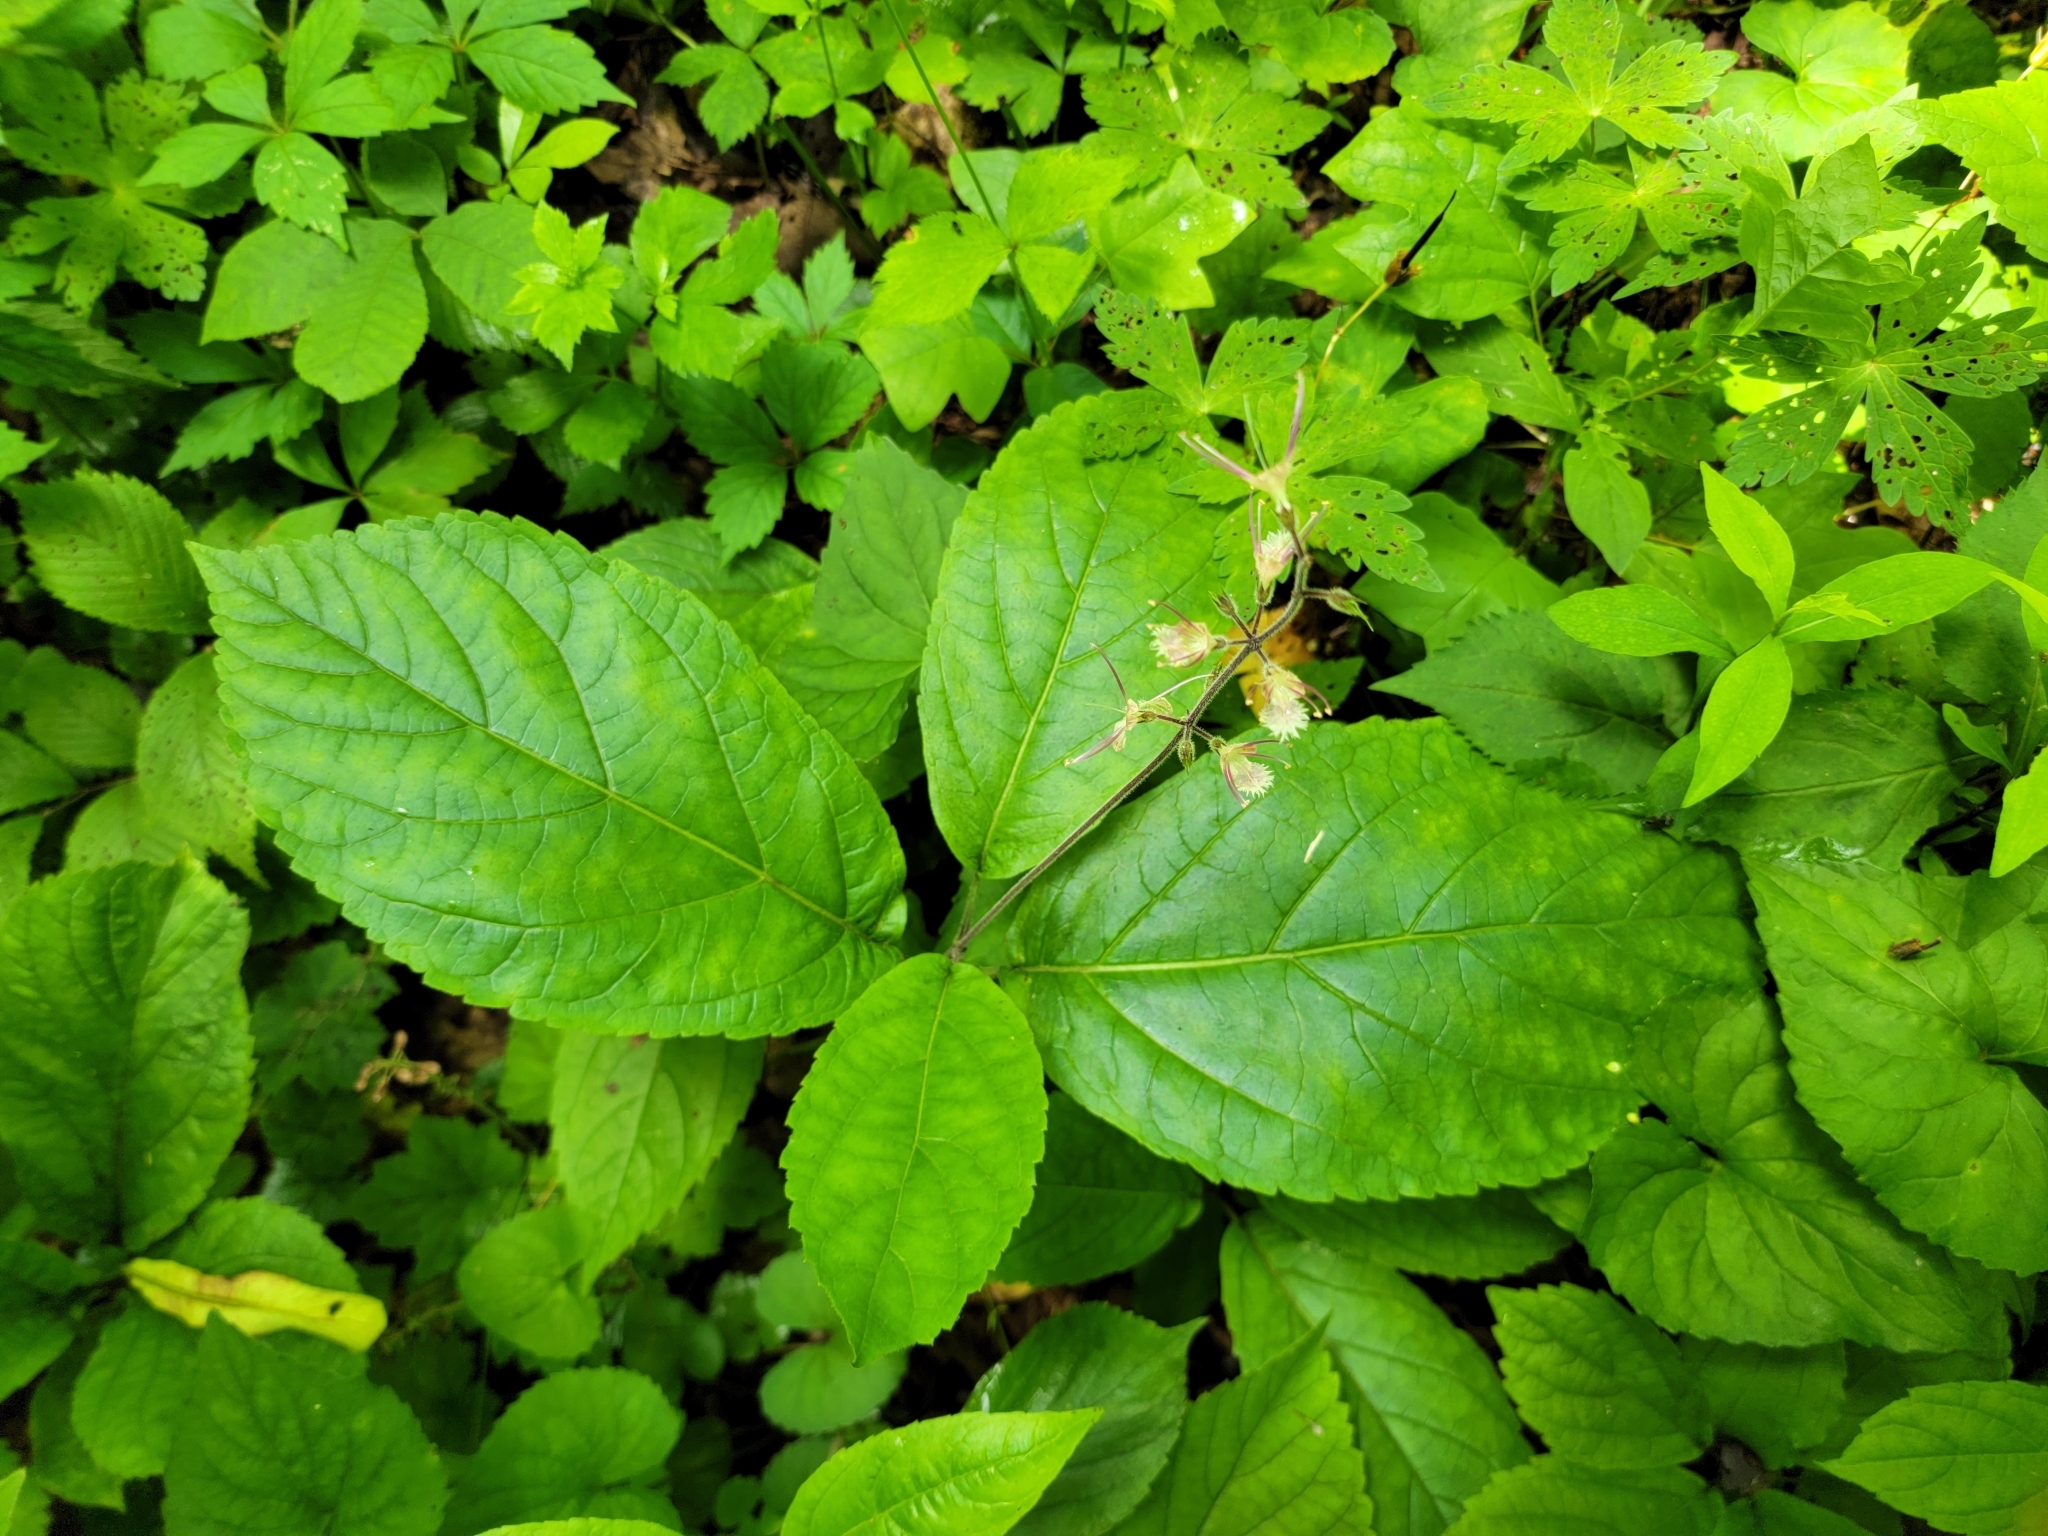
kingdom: Plantae
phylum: Tracheophyta
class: Magnoliopsida
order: Lamiales
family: Lamiaceae
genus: Collinsonia
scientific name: Collinsonia verticillata
